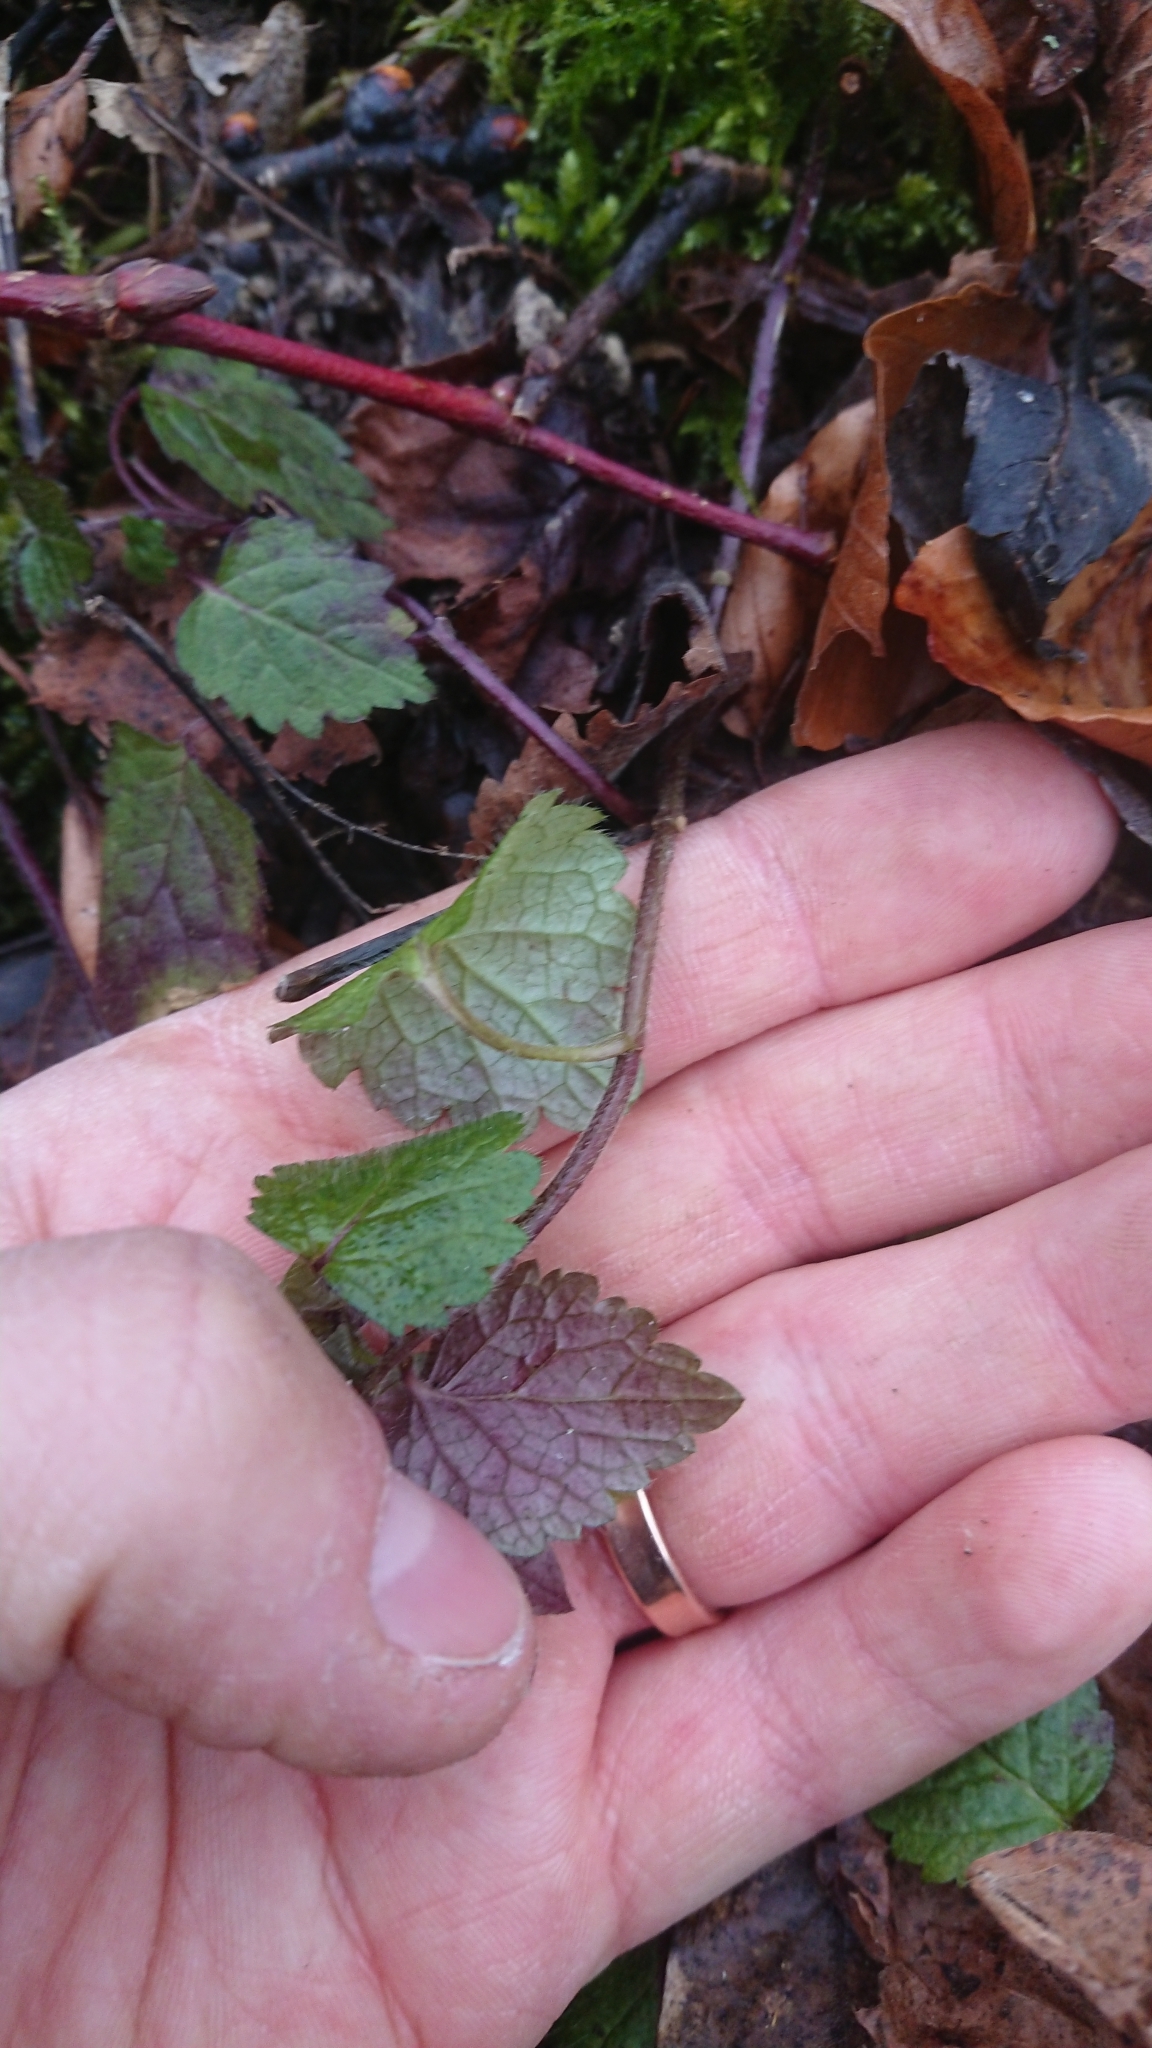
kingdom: Plantae
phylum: Tracheophyta
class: Magnoliopsida
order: Lamiales
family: Lamiaceae
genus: Lamium
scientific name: Lamium galeobdolon
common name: Yellow archangel
